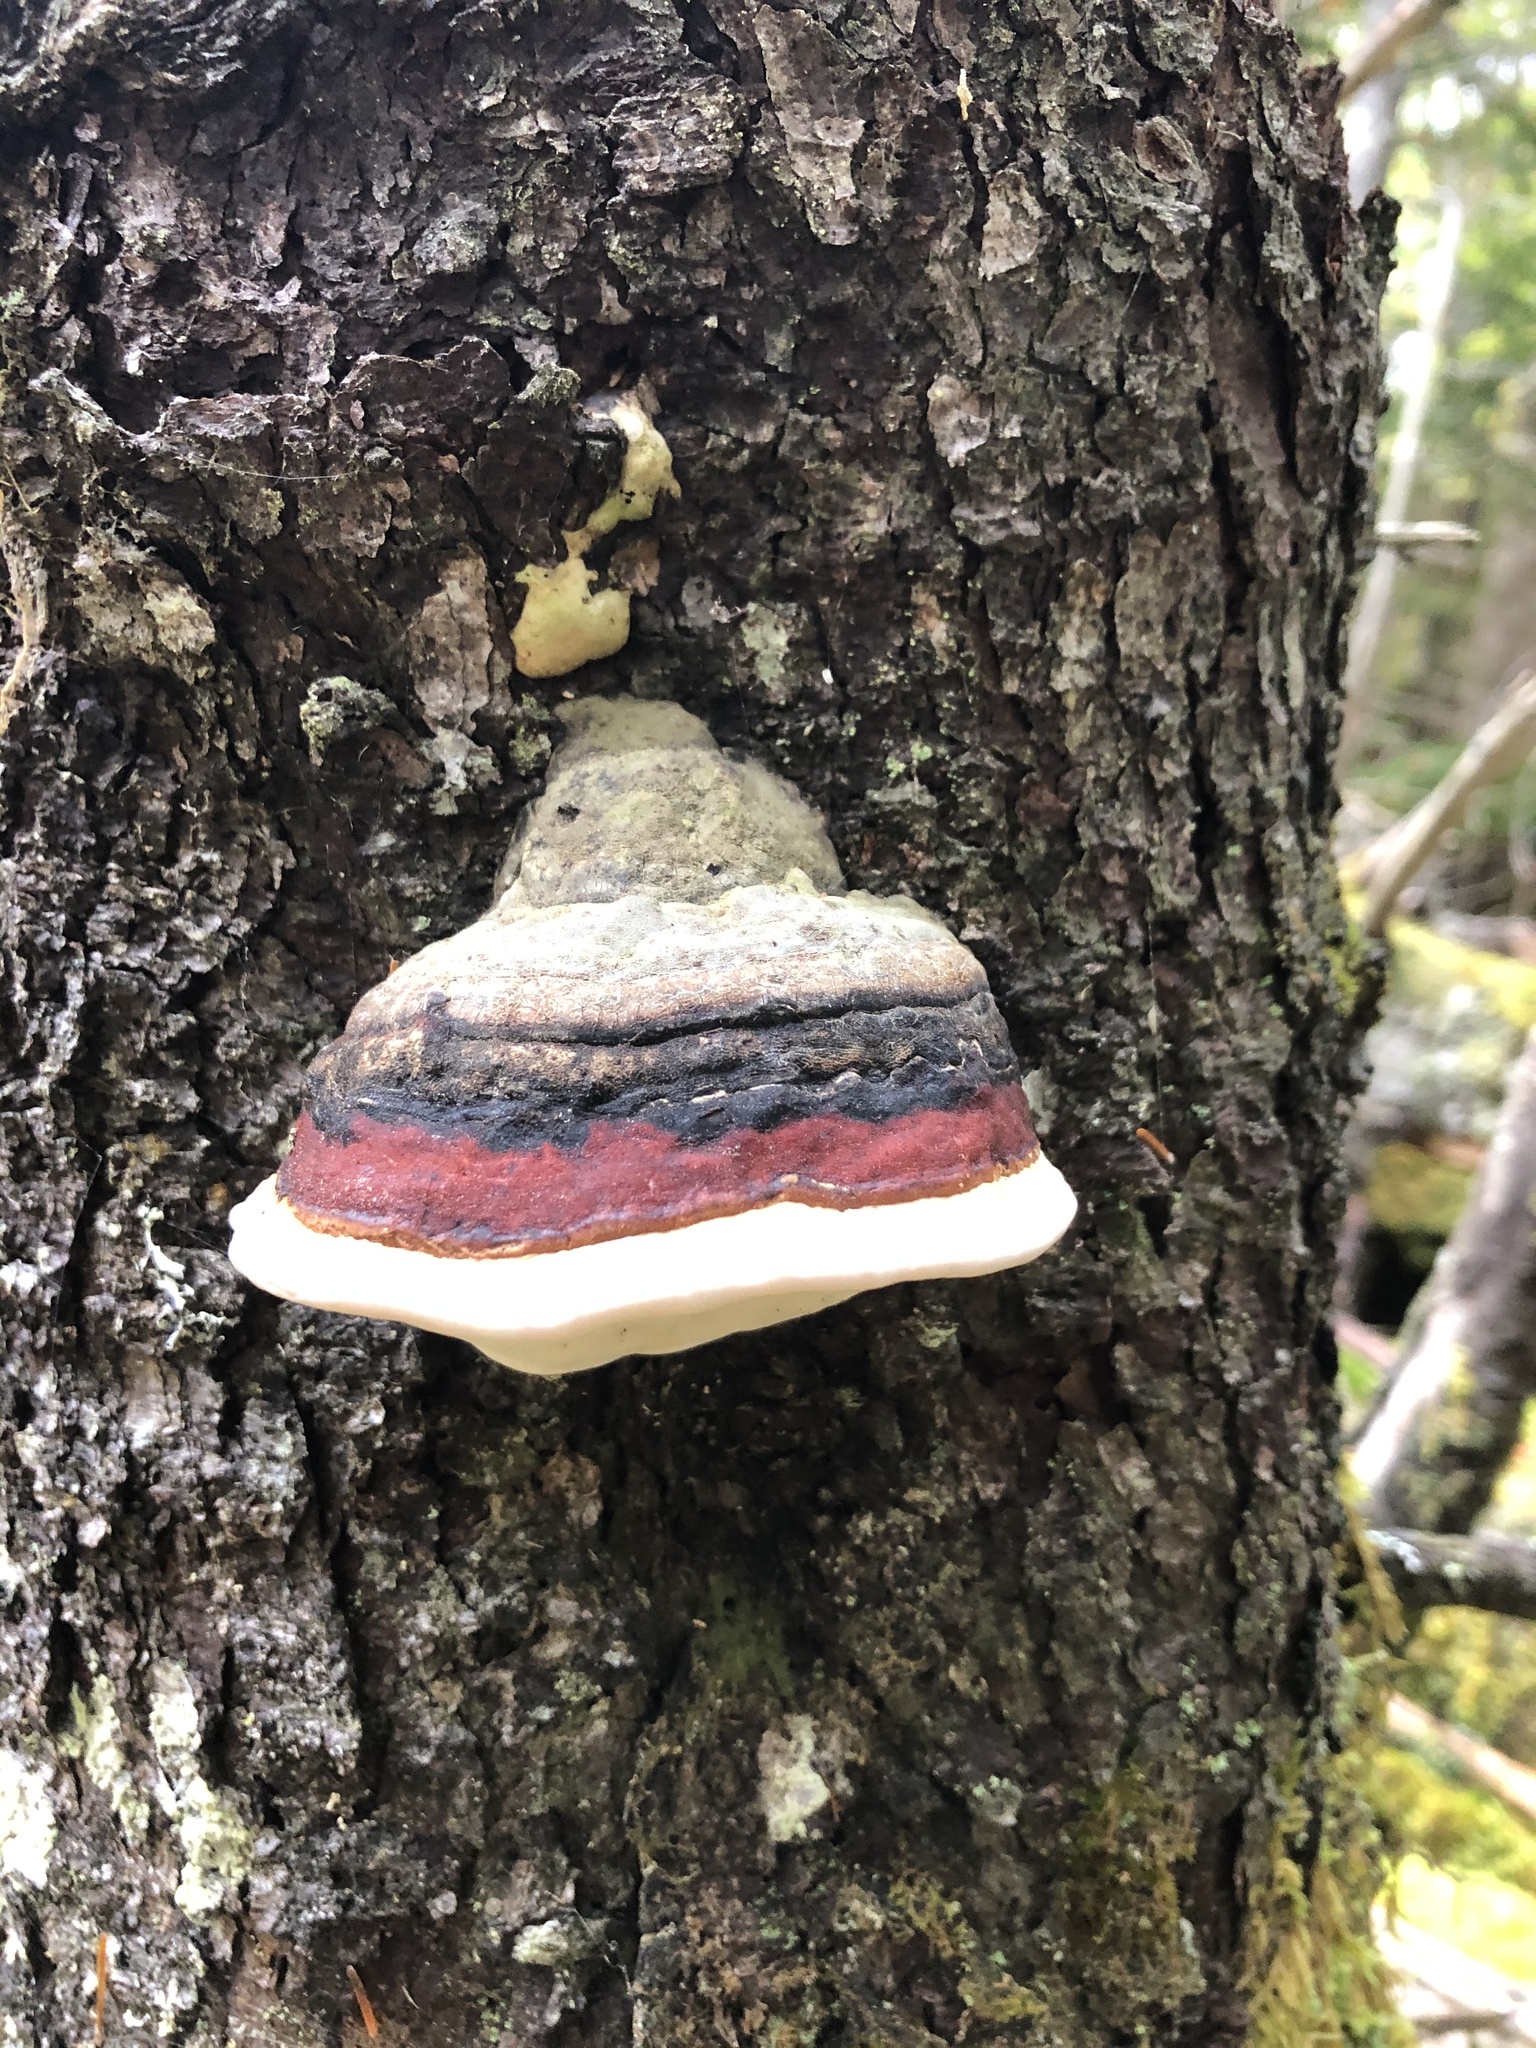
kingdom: Fungi
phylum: Basidiomycota
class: Agaricomycetes
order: Polyporales
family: Fomitopsidaceae
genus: Fomitopsis
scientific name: Fomitopsis mounceae
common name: Northern red belt
